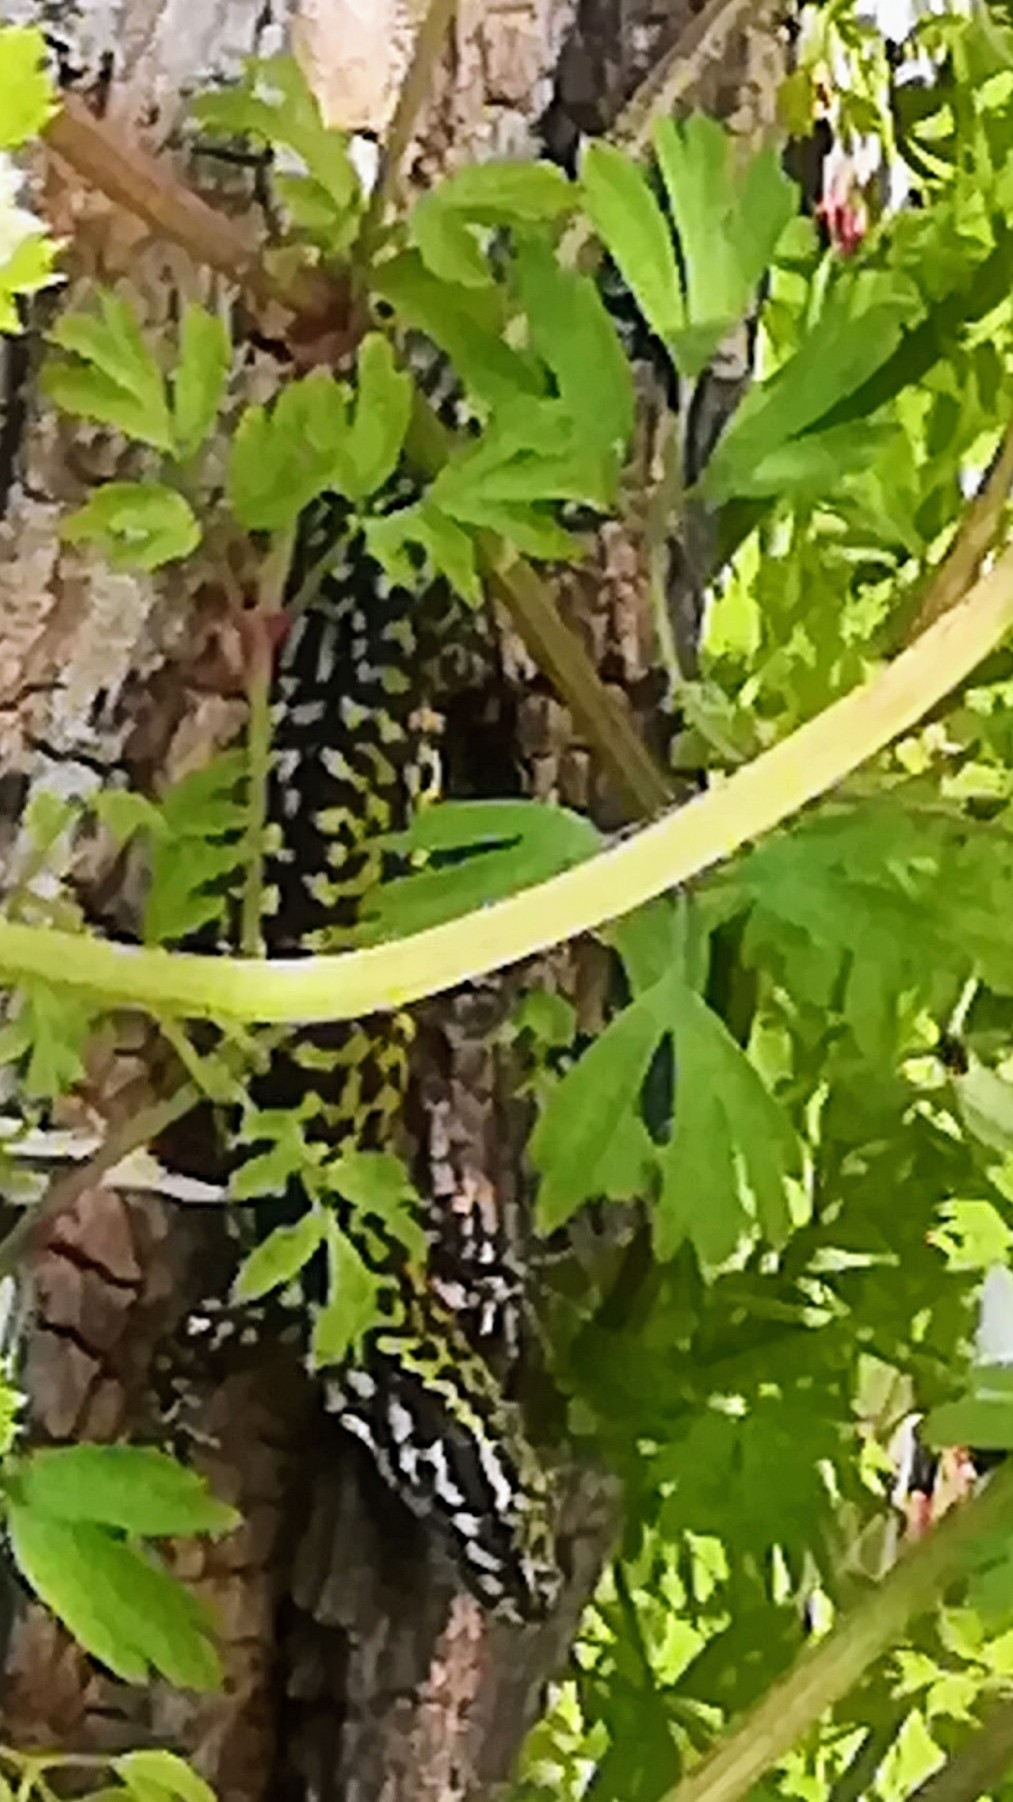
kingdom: Animalia
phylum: Chordata
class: Squamata
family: Lacertidae
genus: Podarcis
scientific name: Podarcis muralis
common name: Common wall lizard
